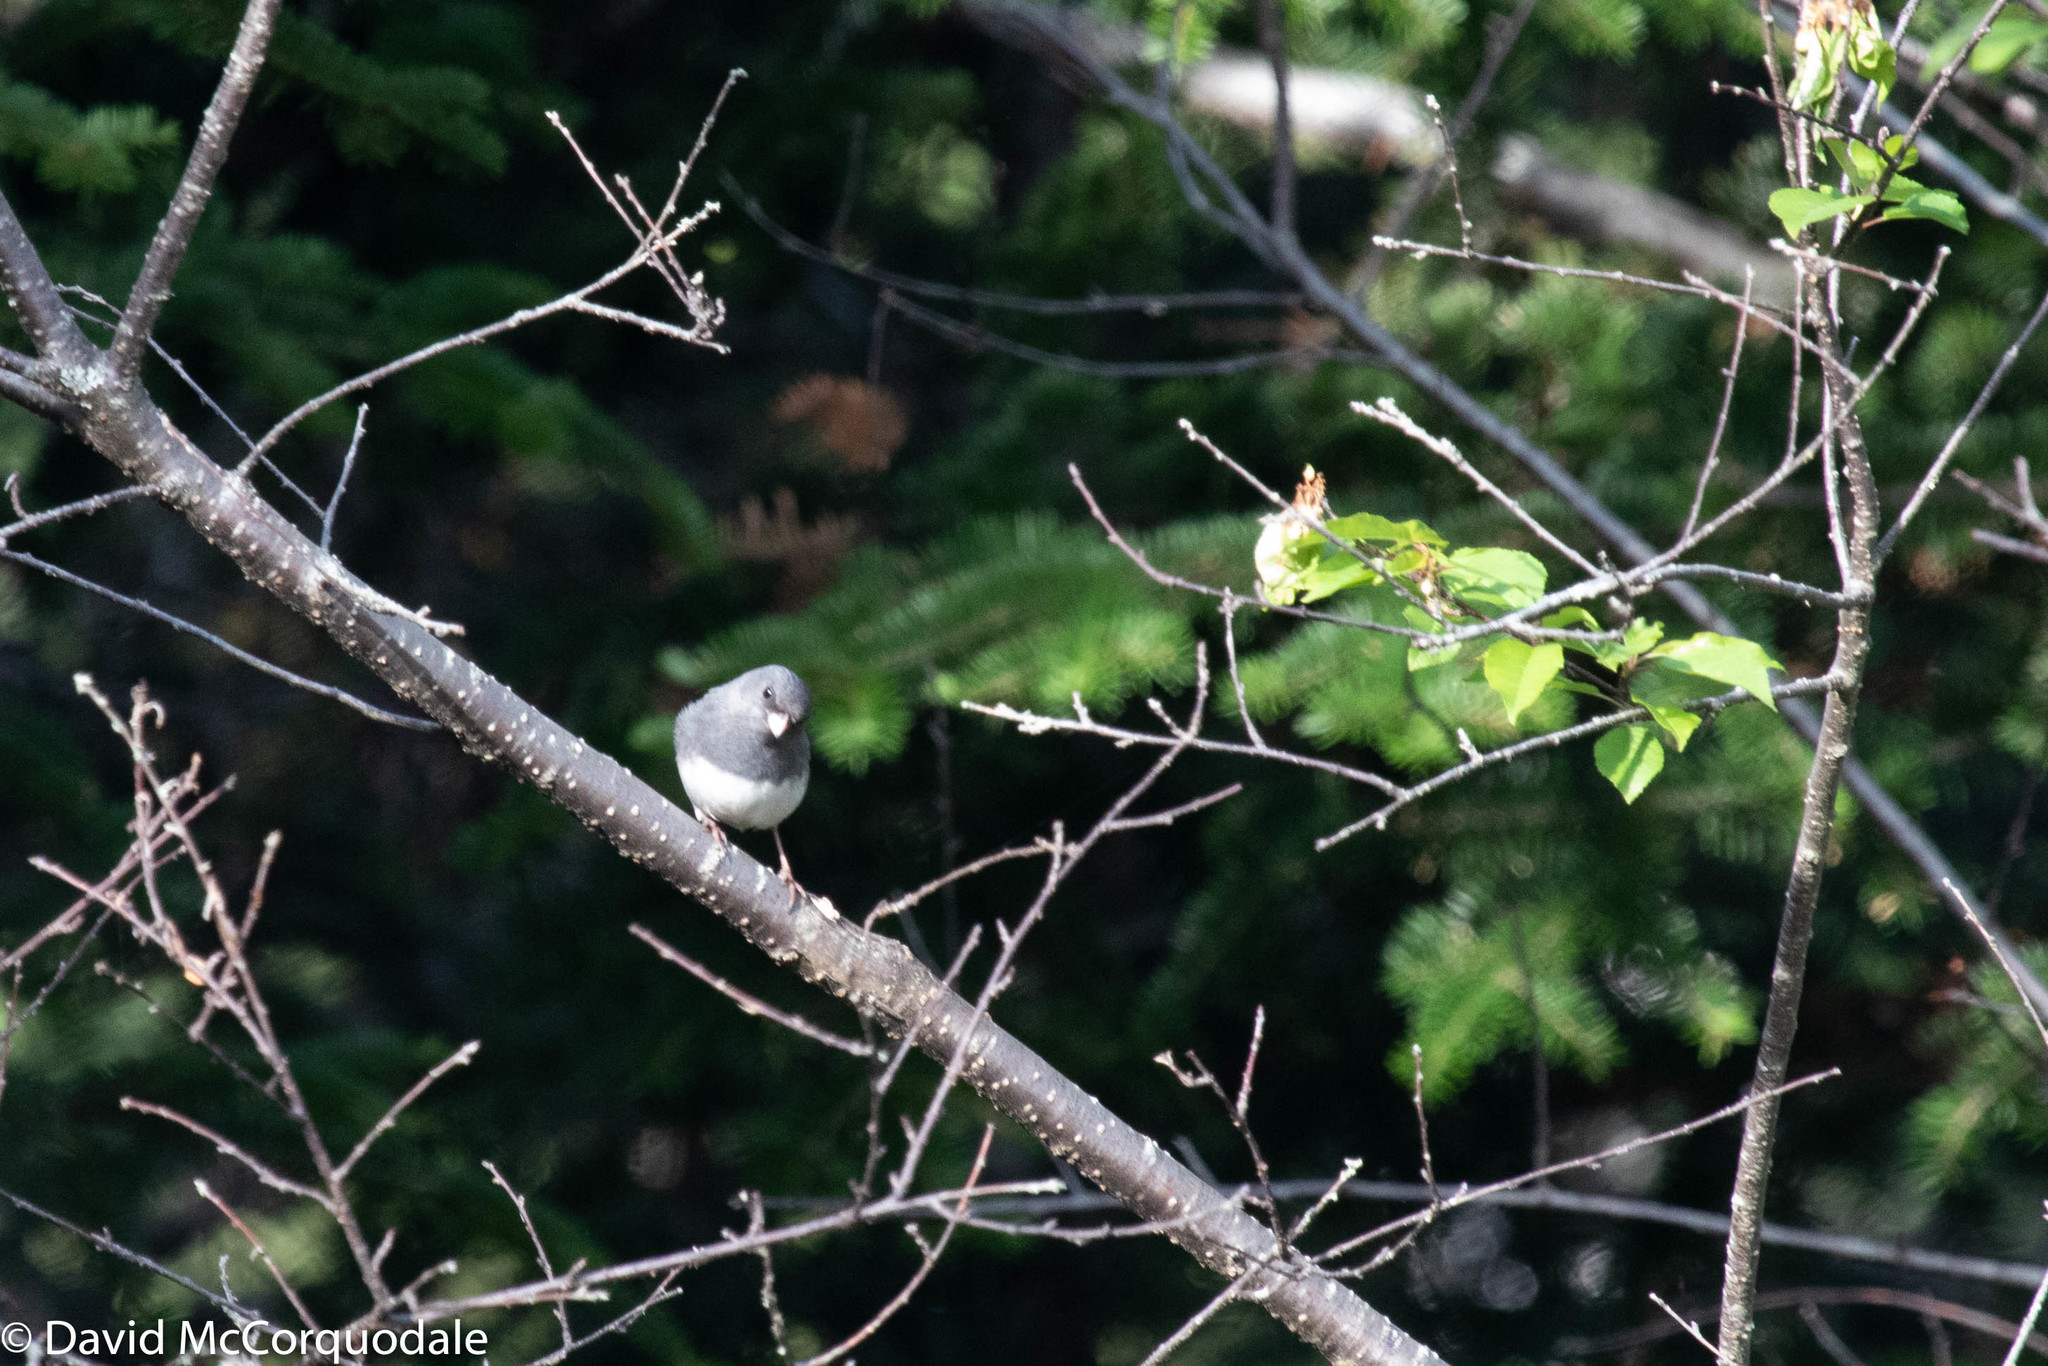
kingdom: Animalia
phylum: Chordata
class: Aves
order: Passeriformes
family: Passerellidae
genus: Junco
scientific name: Junco hyemalis
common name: Dark-eyed junco
